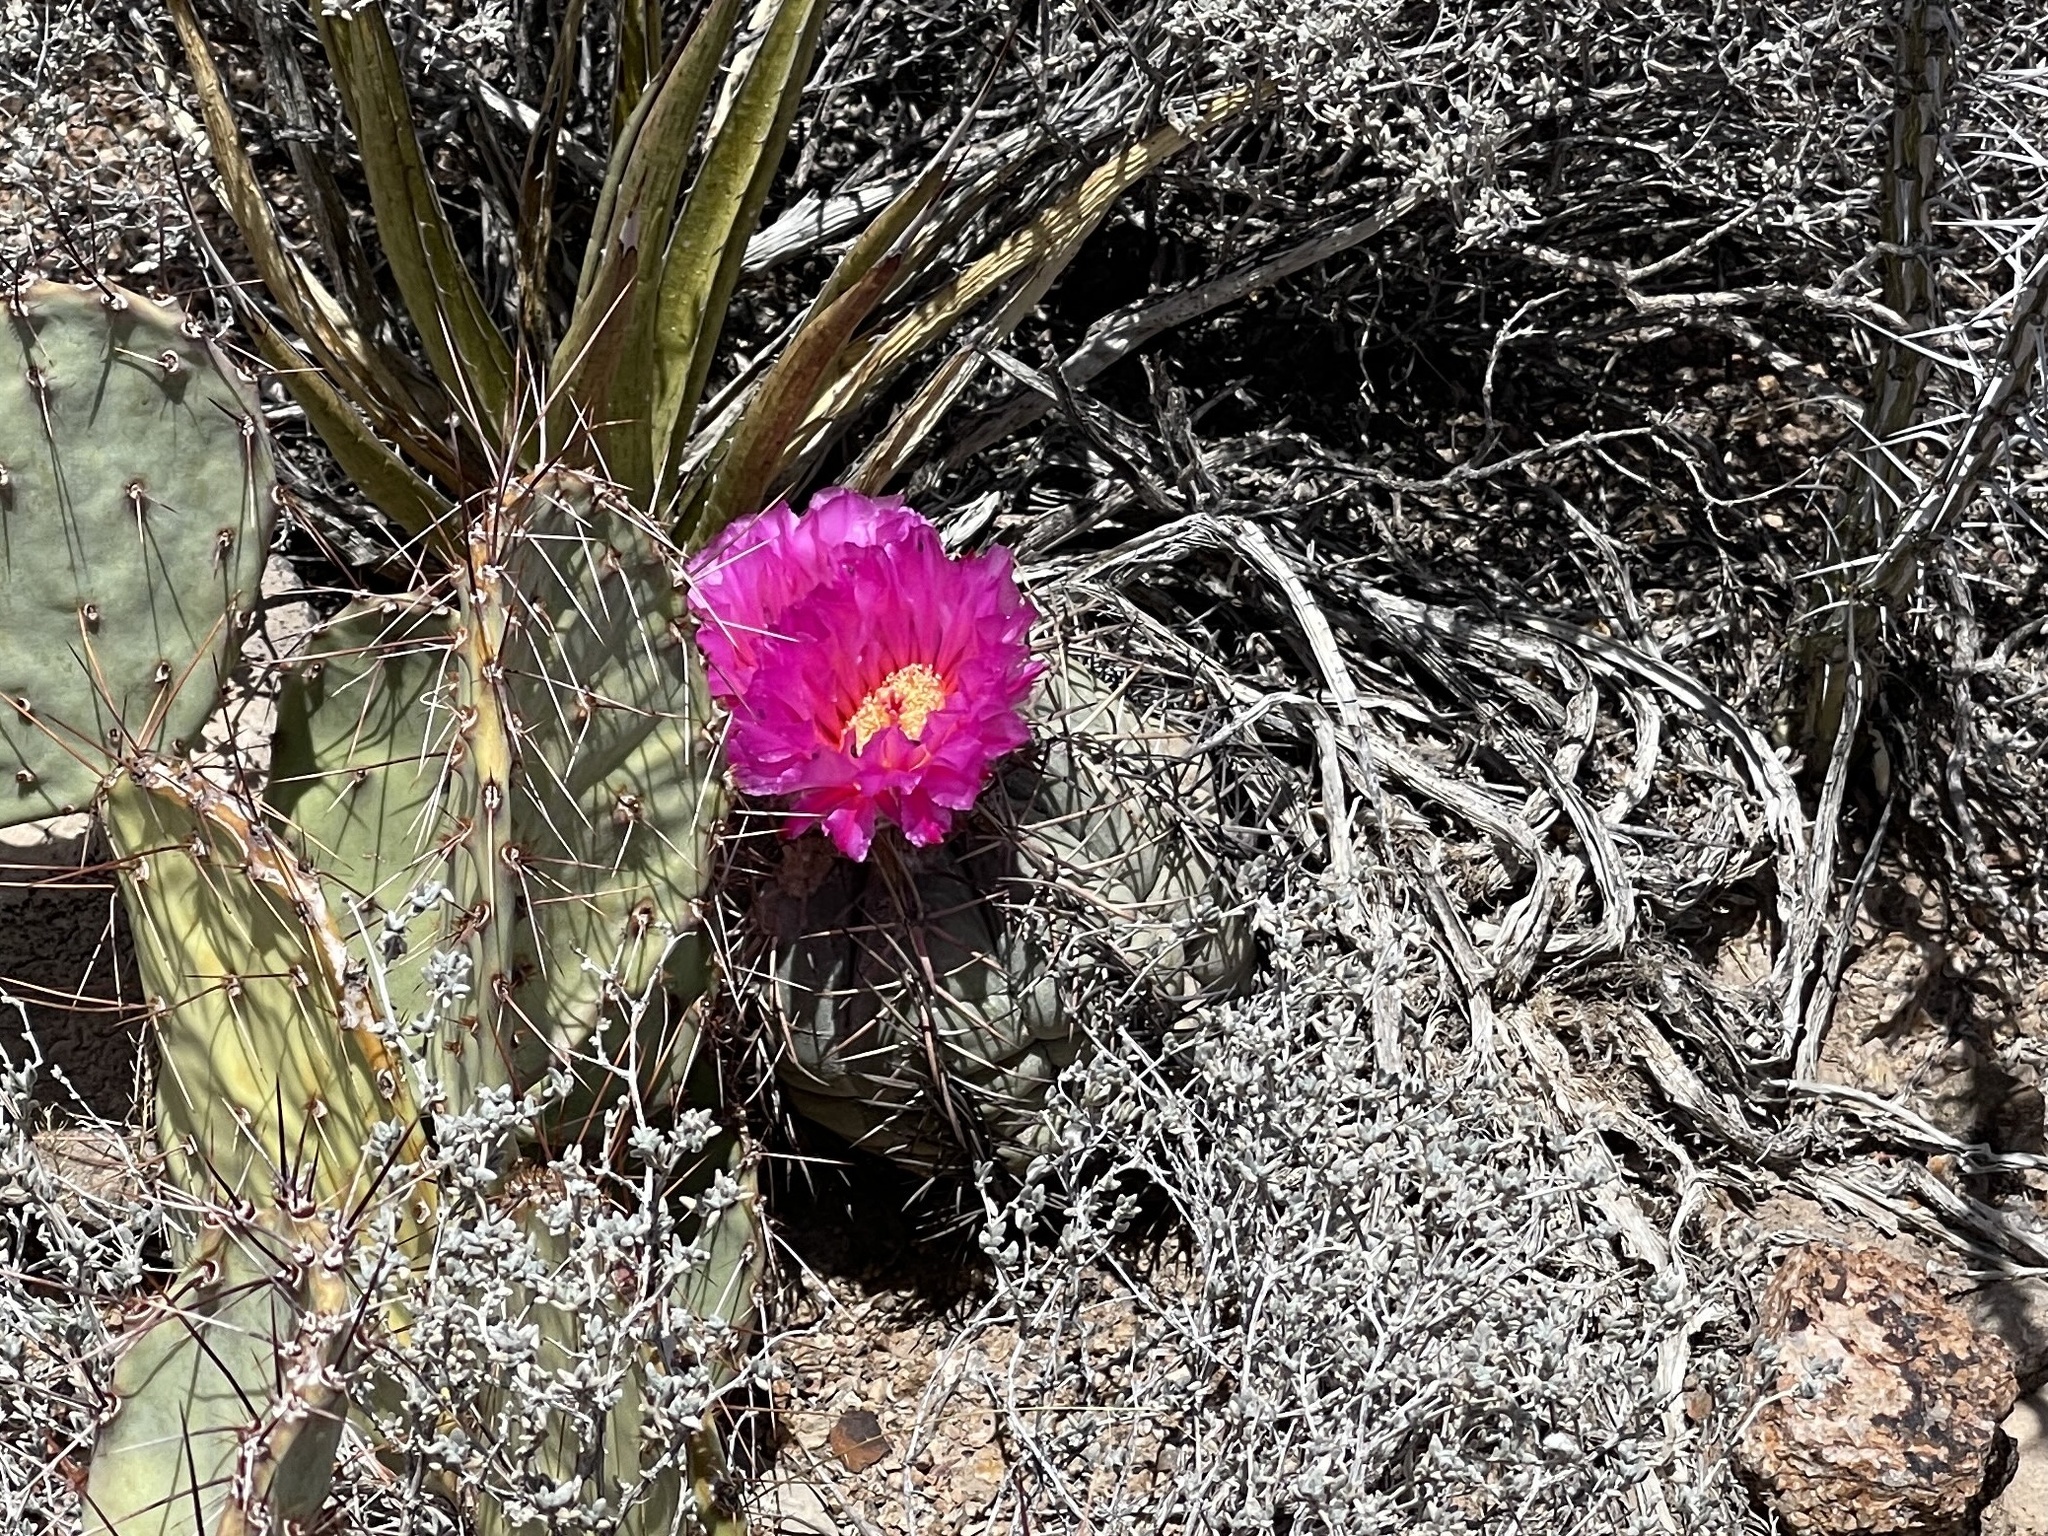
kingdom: Plantae
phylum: Tracheophyta
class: Magnoliopsida
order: Caryophyllales
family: Cactaceae
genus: Echinocactus
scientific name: Echinocactus horizonthalonius
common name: Devilshead
